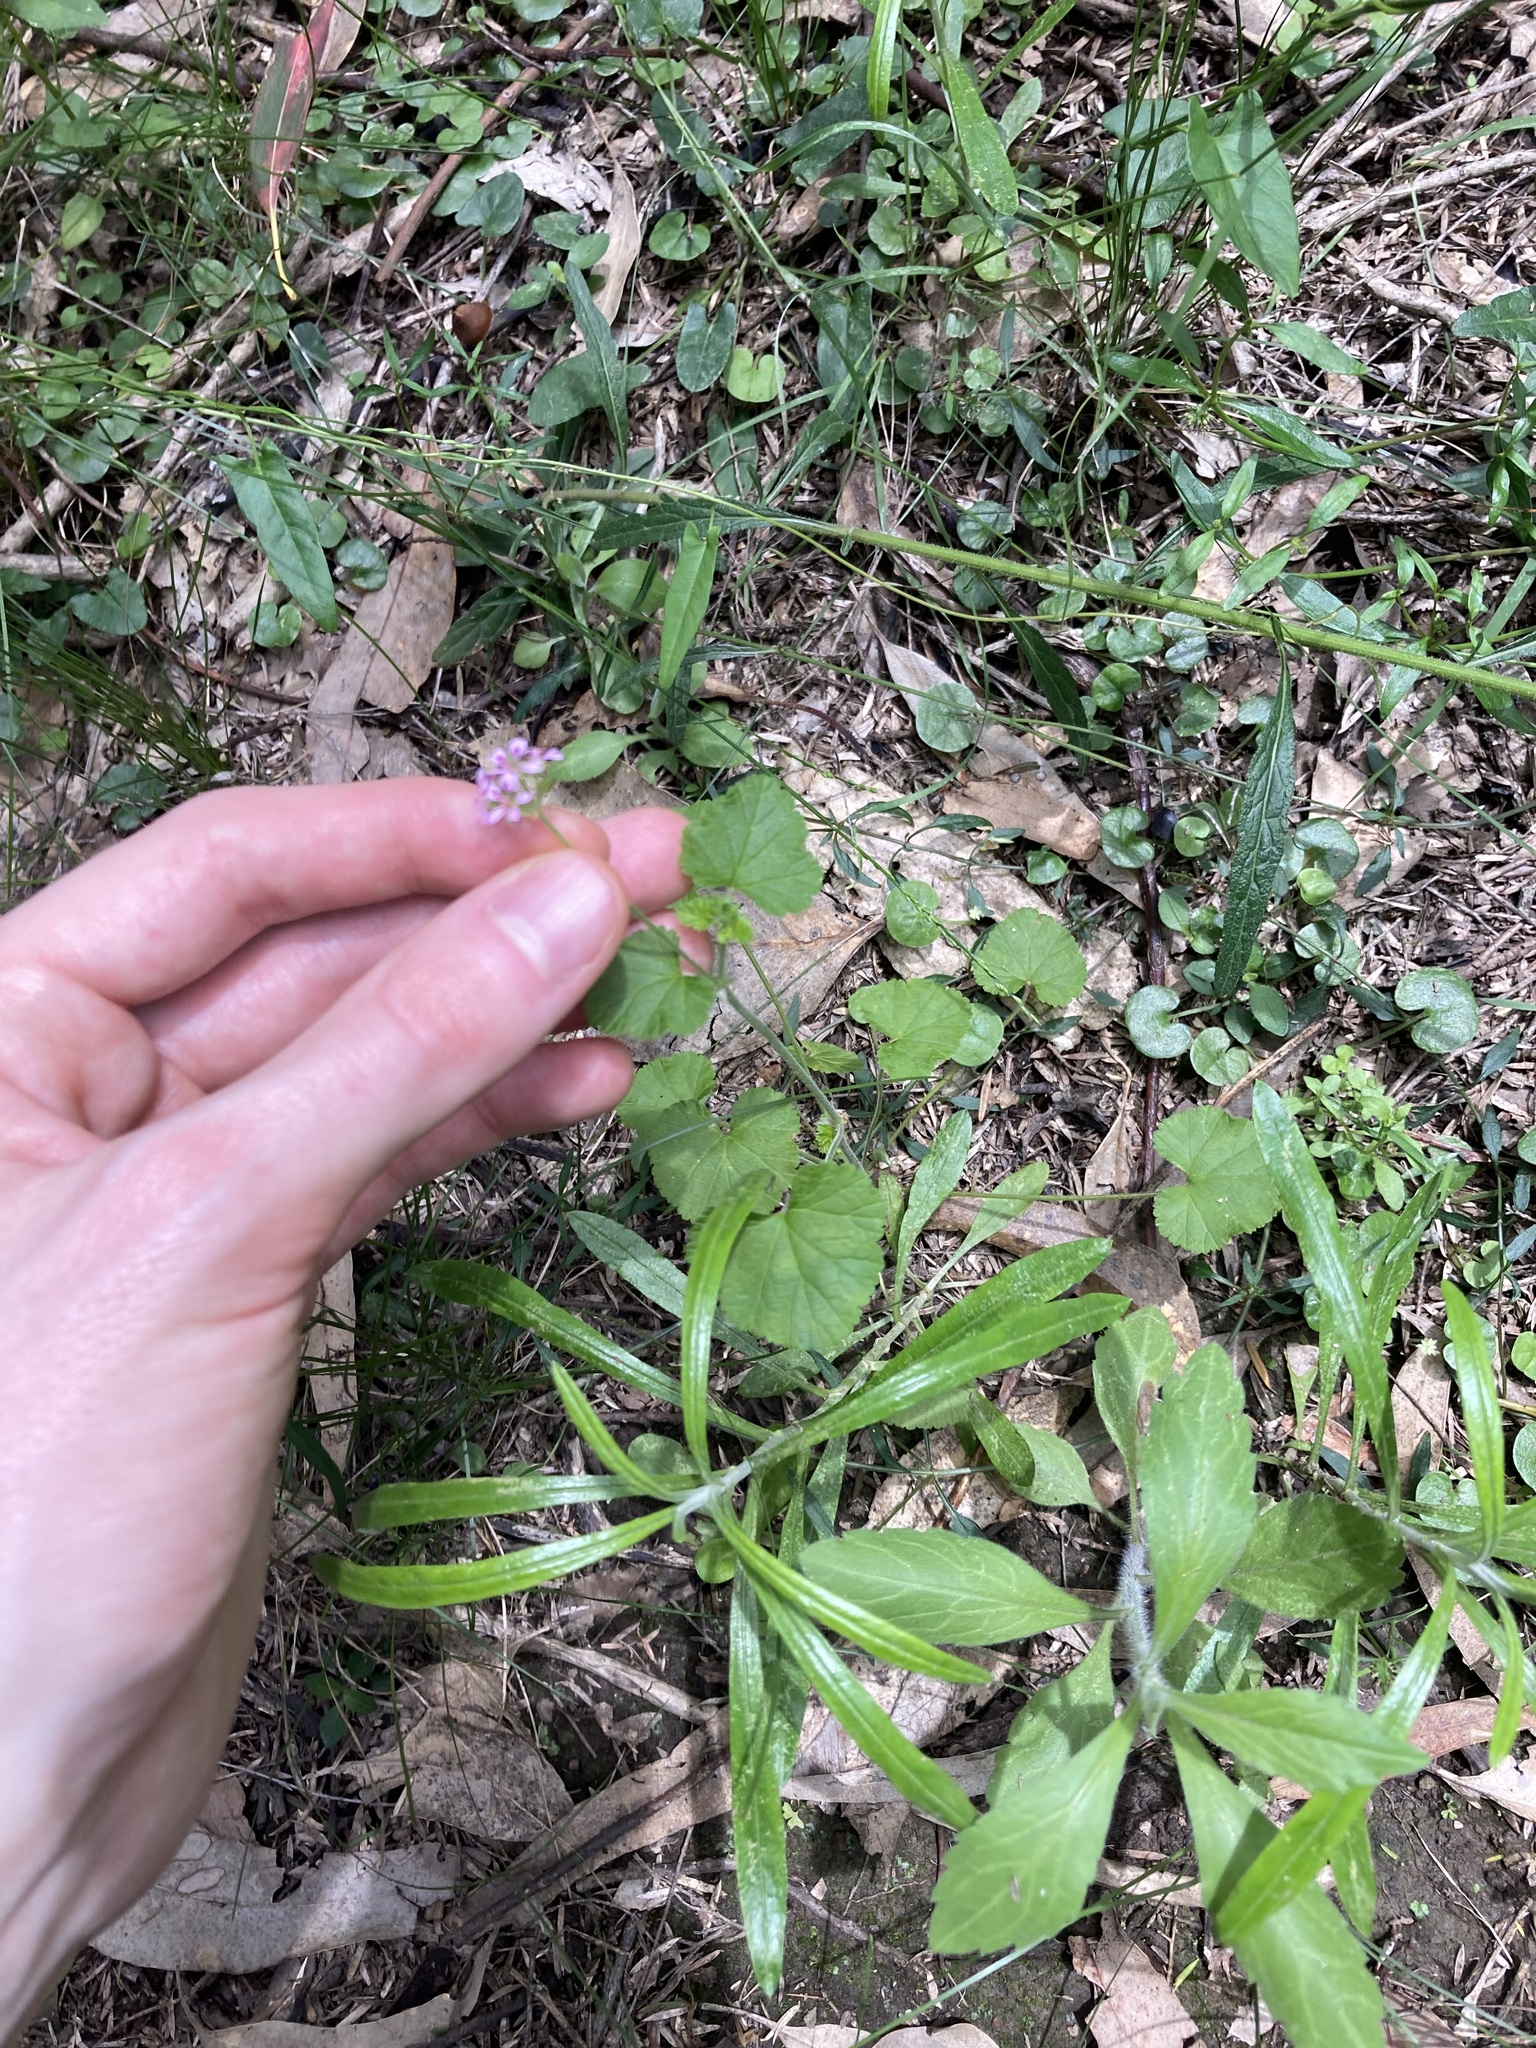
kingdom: Plantae
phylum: Tracheophyta
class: Magnoliopsida
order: Geraniales
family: Geraniaceae
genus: Pelargonium
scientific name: Pelargonium inodorum
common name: Kopata geranium
